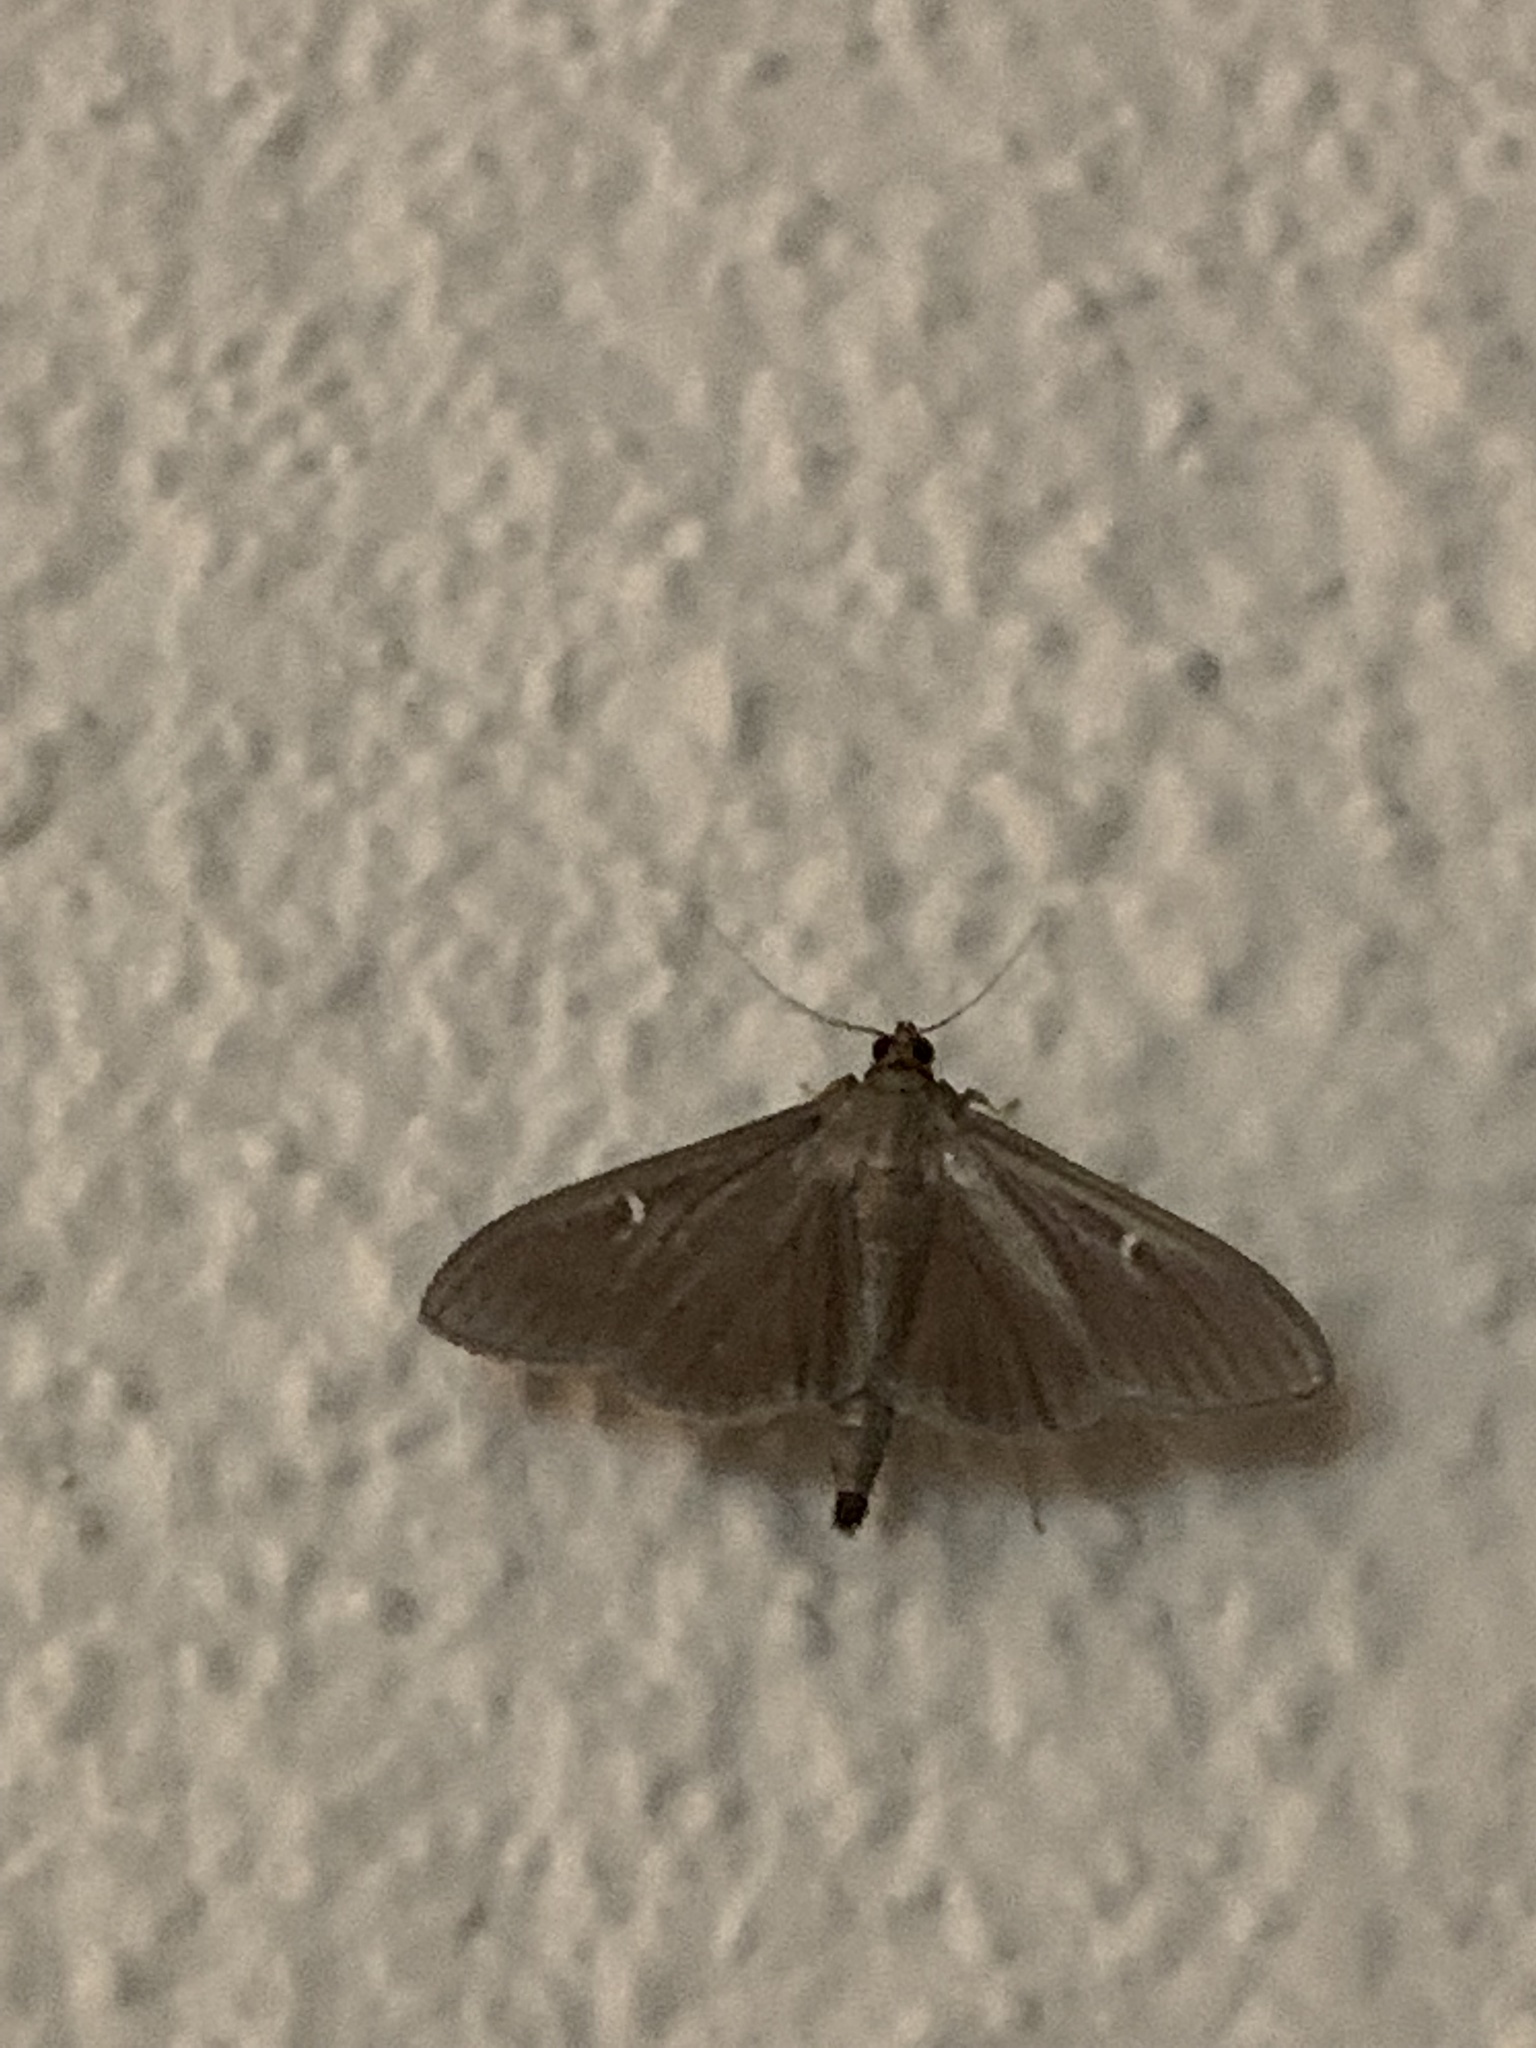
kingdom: Animalia
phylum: Arthropoda
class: Insecta
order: Lepidoptera
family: Crambidae
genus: Cydalima
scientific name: Cydalima perspectalis
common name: Box tree moth
